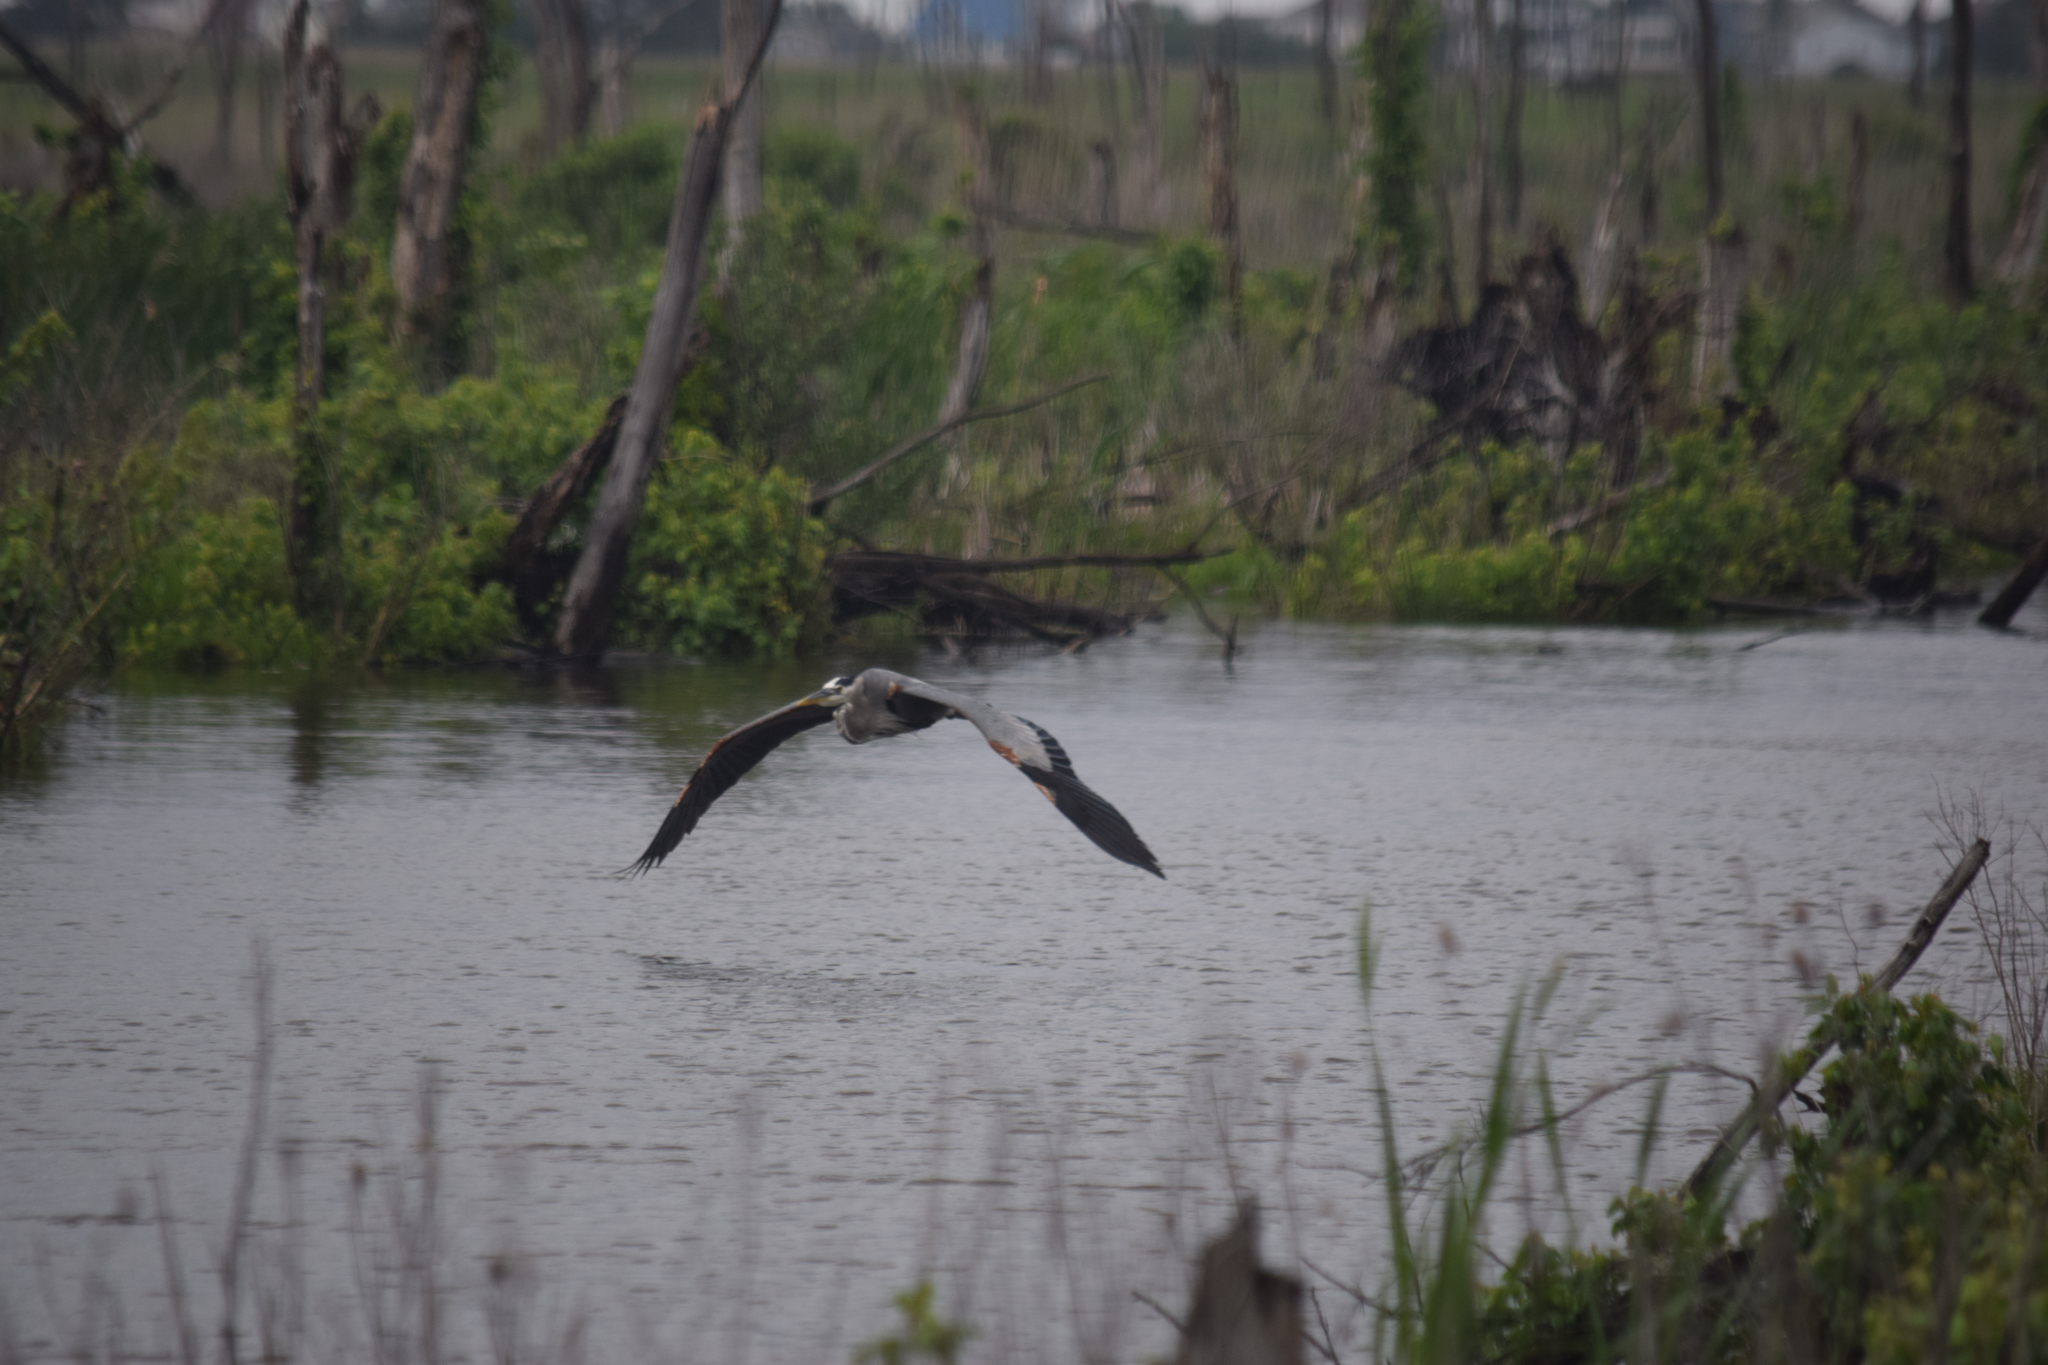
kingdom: Animalia
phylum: Chordata
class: Aves
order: Pelecaniformes
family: Ardeidae
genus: Ardea
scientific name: Ardea herodias
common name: Great blue heron
